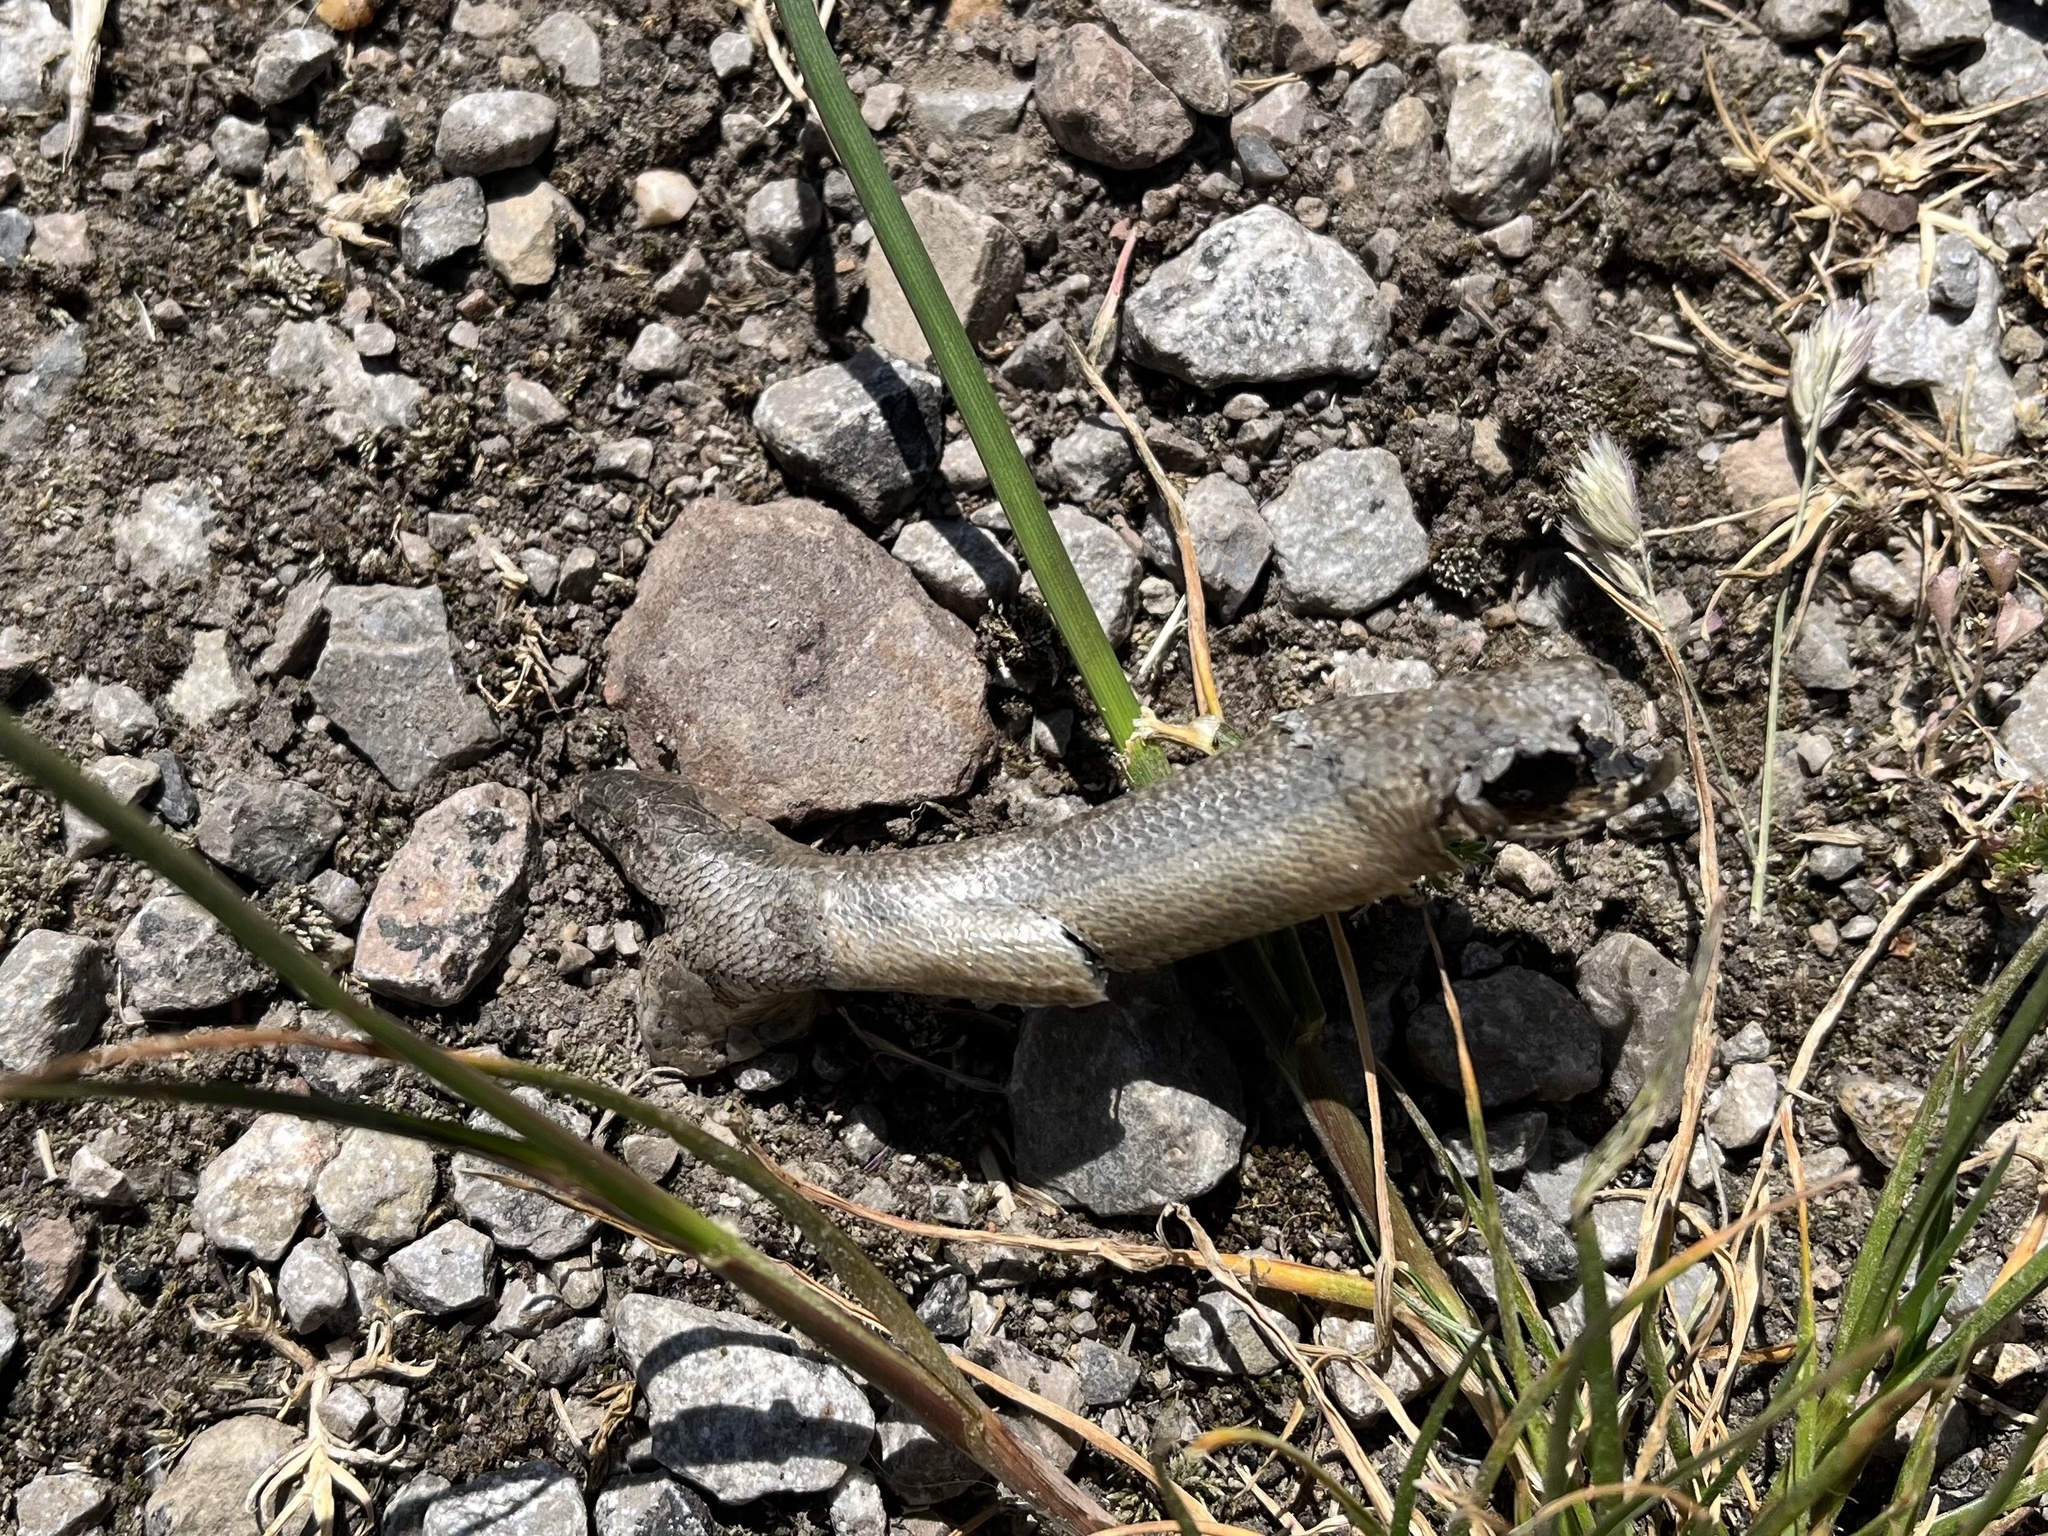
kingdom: Animalia
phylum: Chordata
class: Squamata
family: Anguidae
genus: Anguis
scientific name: Anguis fragilis
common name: Slow worm
